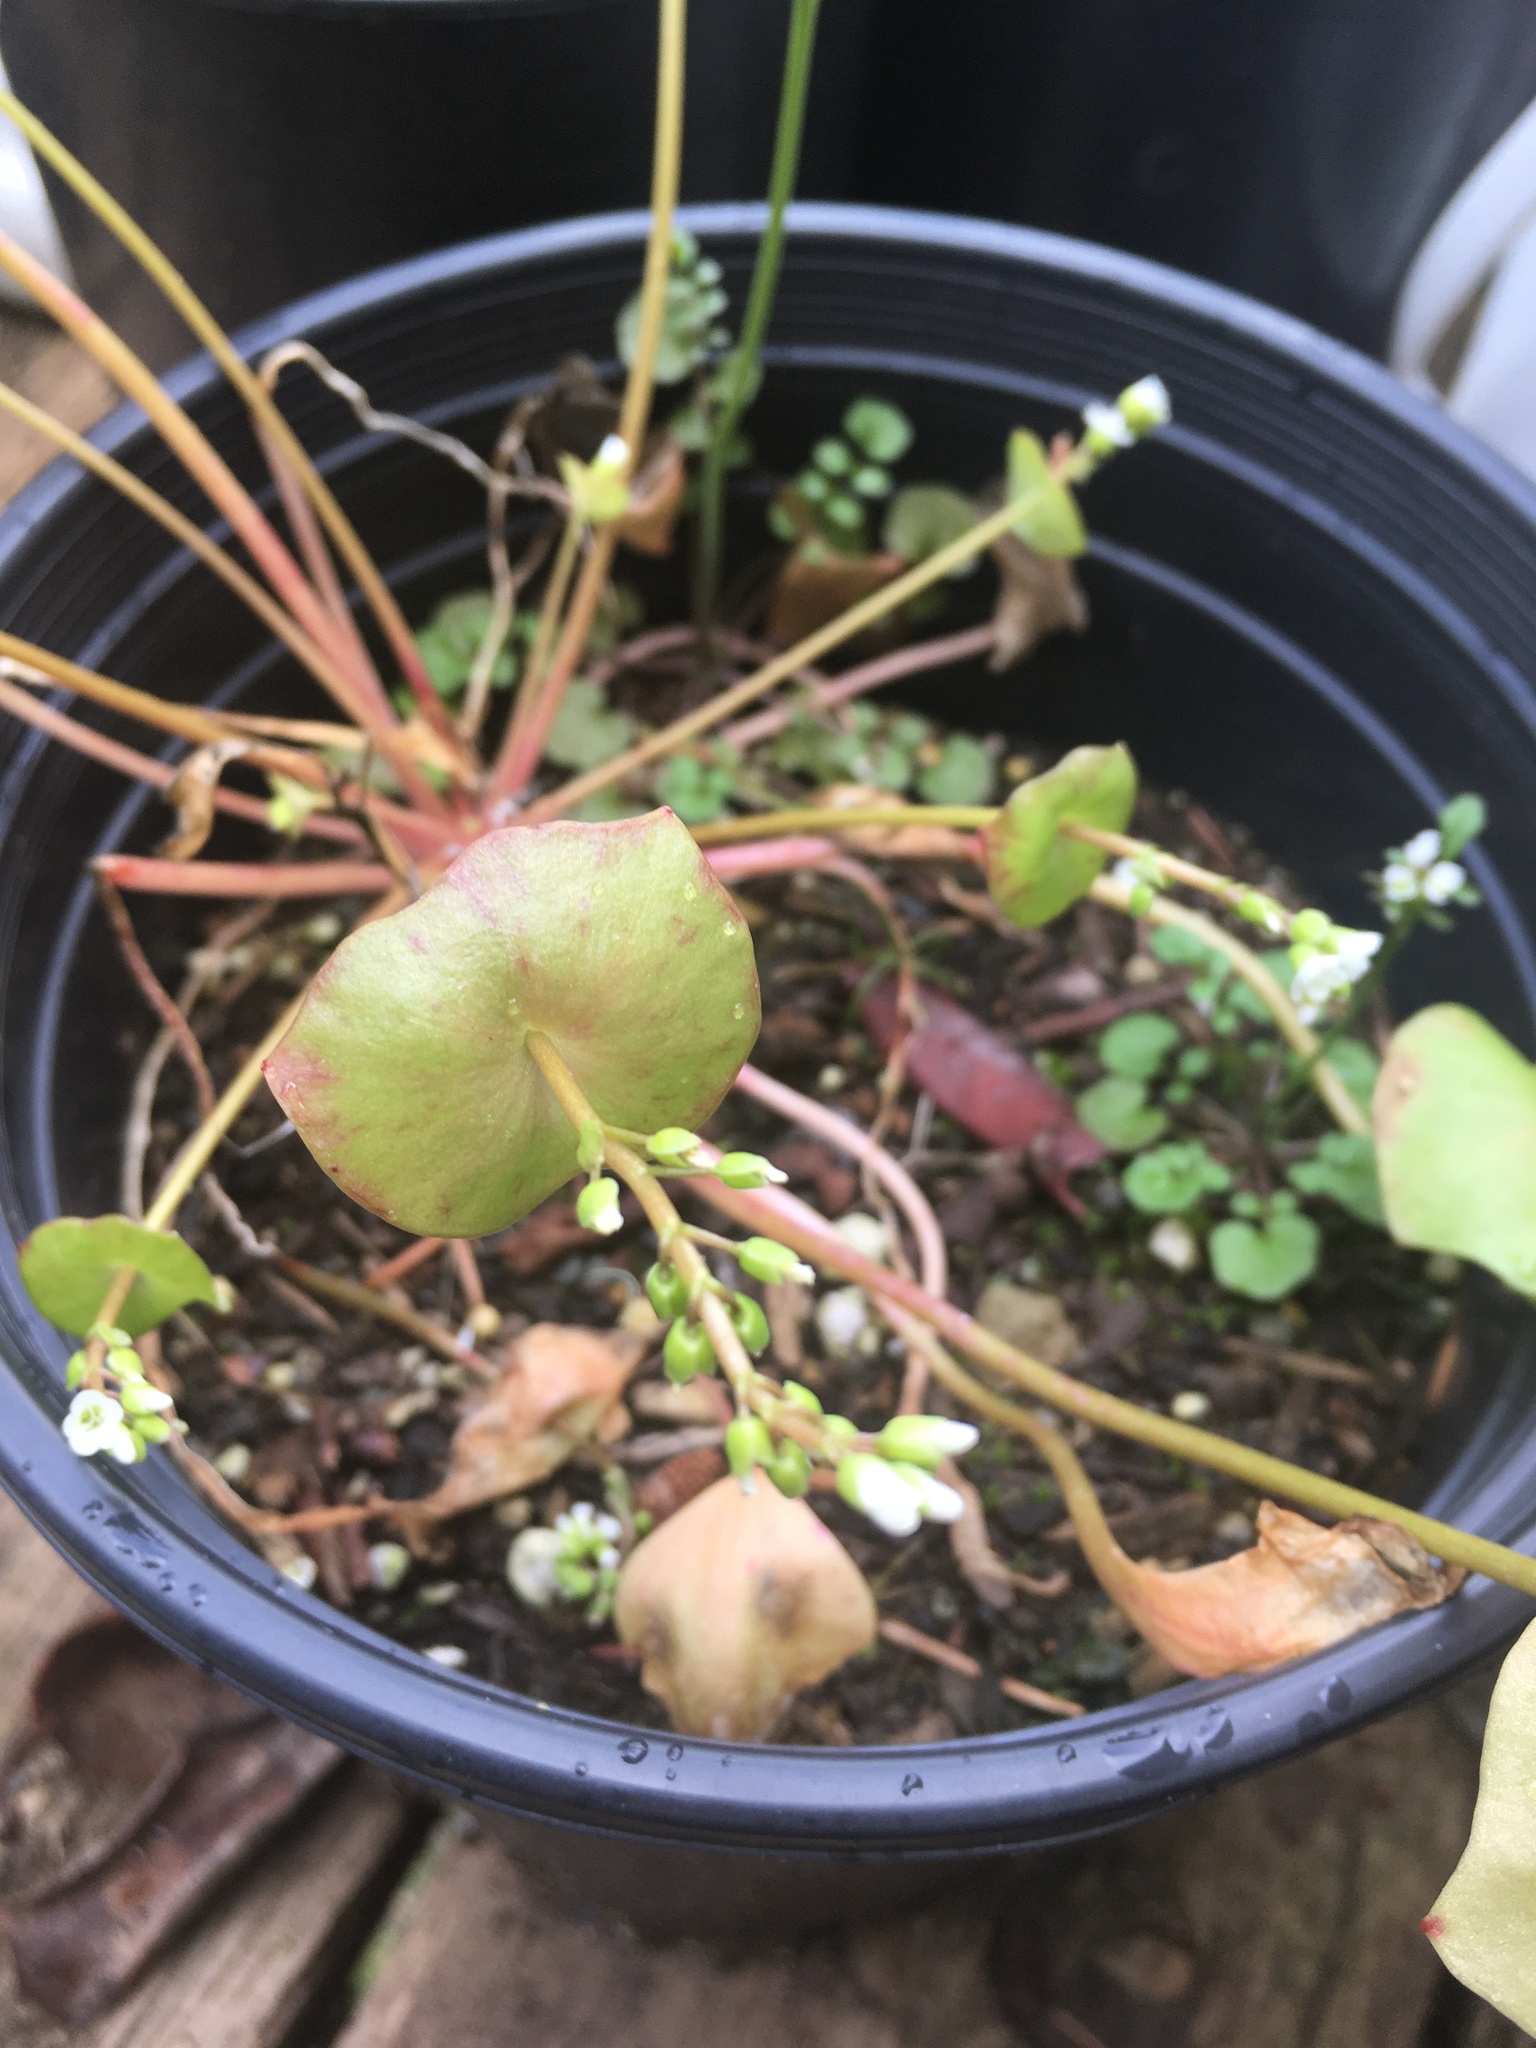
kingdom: Plantae
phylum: Tracheophyta
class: Magnoliopsida
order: Caryophyllales
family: Montiaceae
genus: Claytonia
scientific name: Claytonia perfoliata
